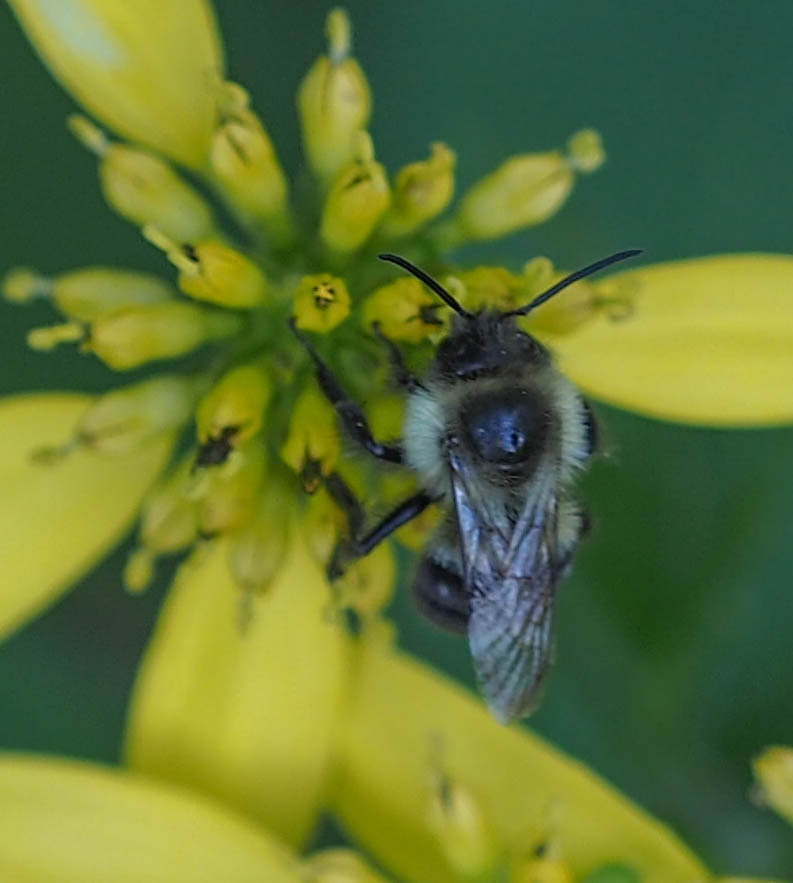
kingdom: Animalia
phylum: Arthropoda
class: Insecta
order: Hymenoptera
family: Apidae
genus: Bombus
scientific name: Bombus impatiens
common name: Common eastern bumble bee
